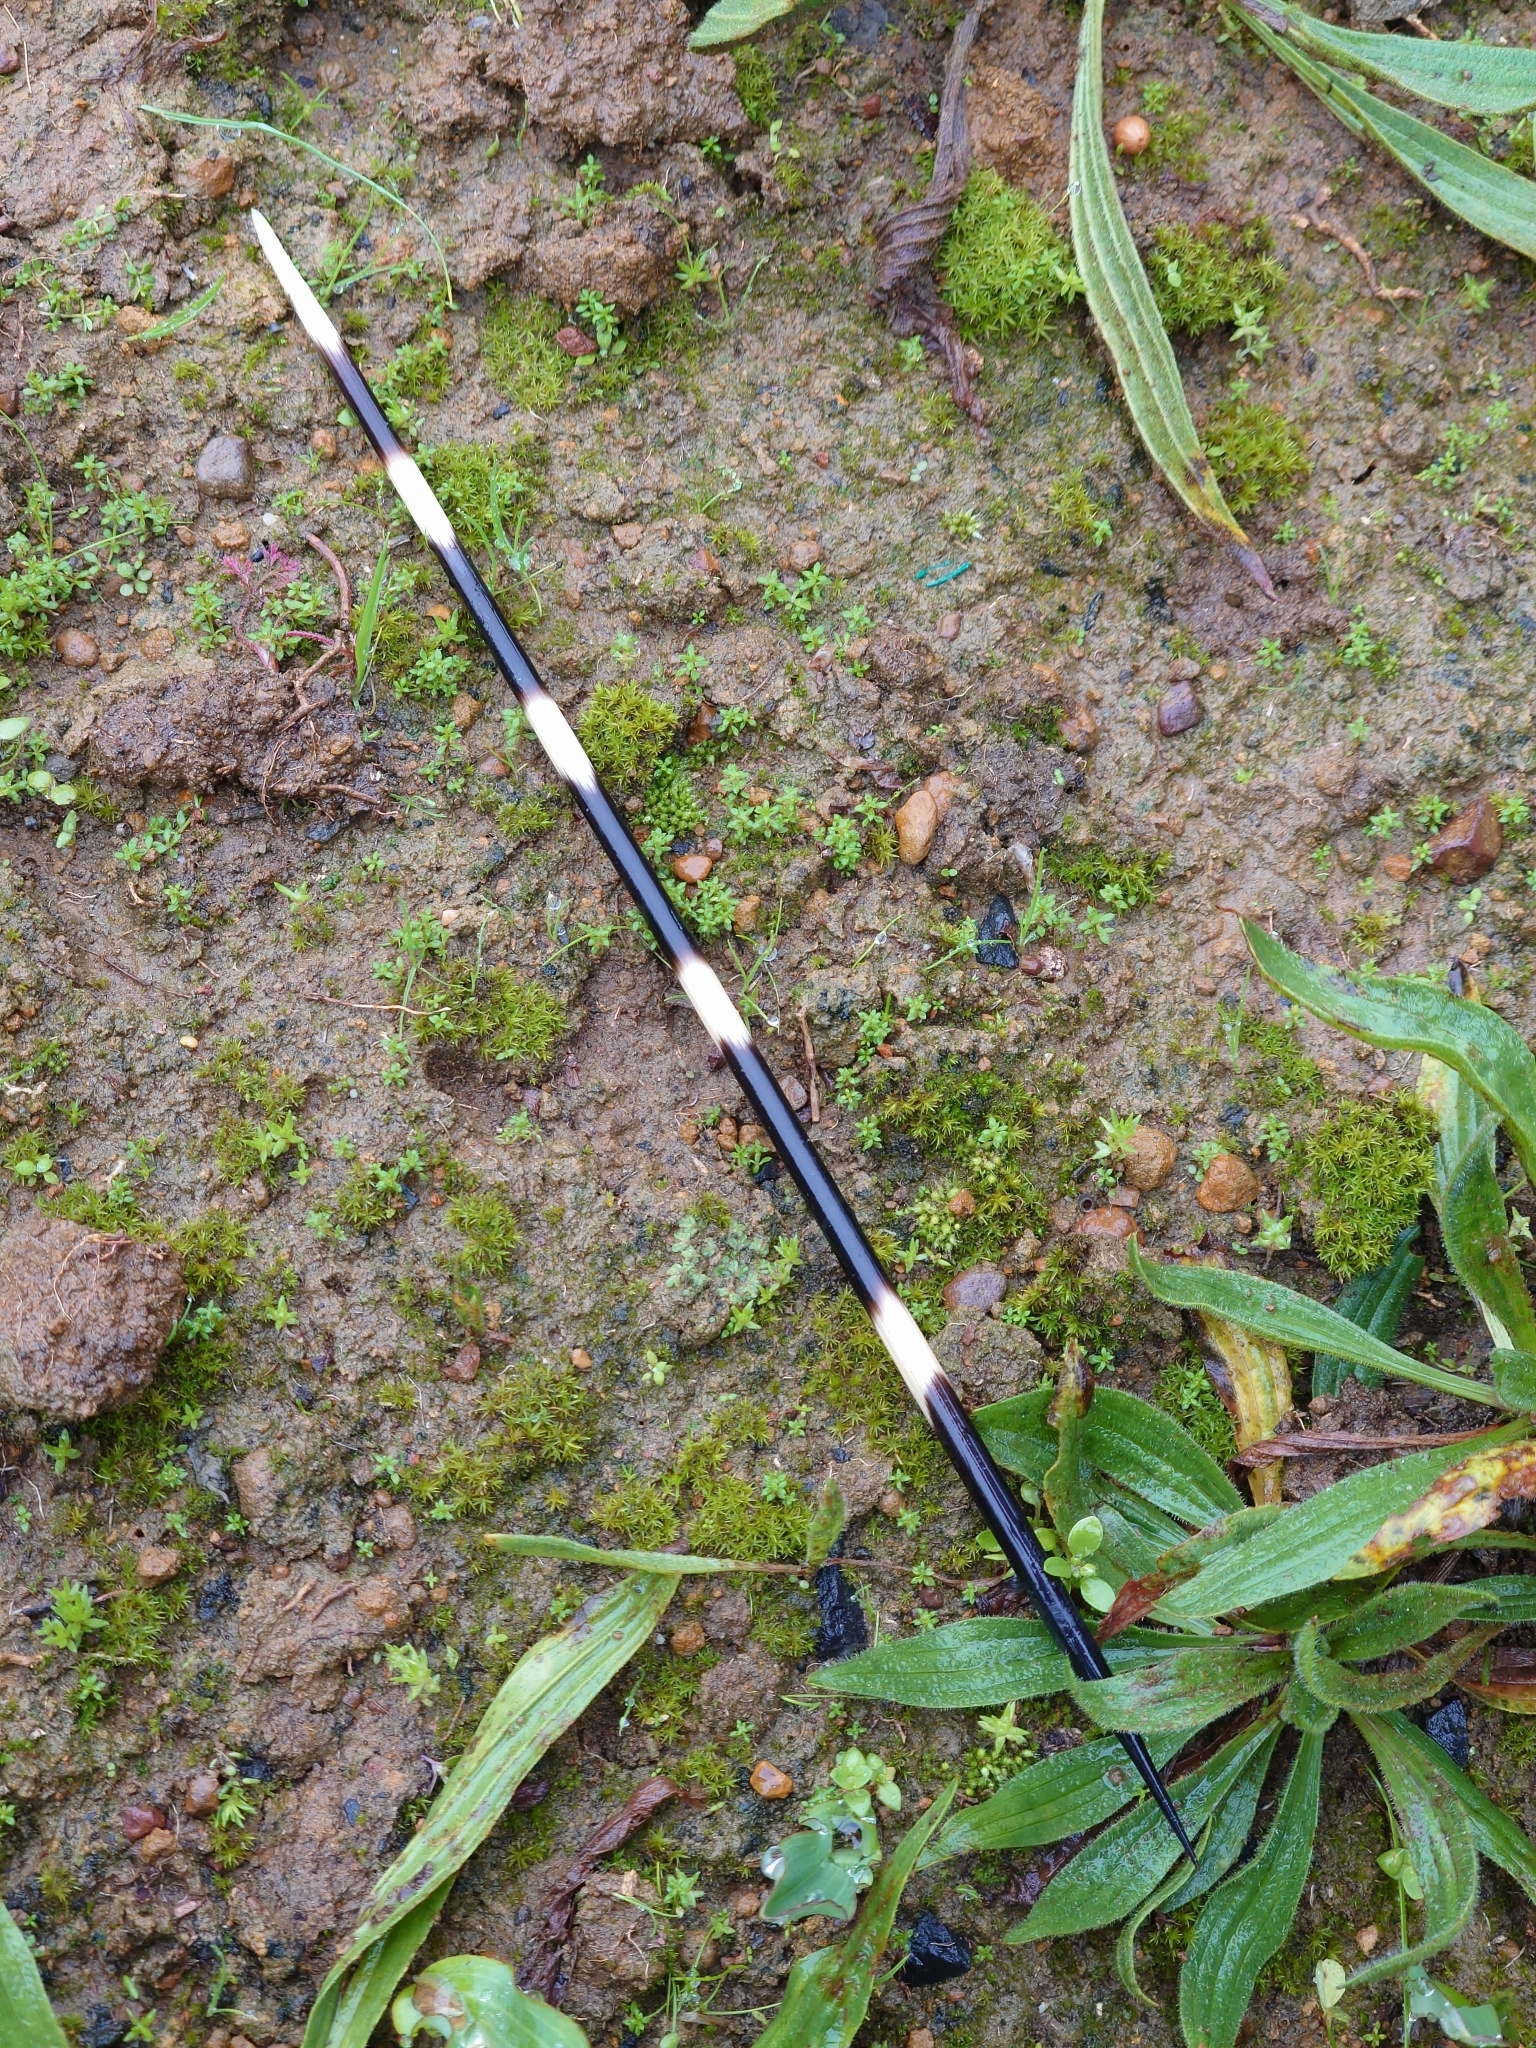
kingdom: Animalia
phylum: Chordata
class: Mammalia
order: Rodentia
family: Hystricidae
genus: Hystrix
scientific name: Hystrix africaeaustralis
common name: Cape porcupine
